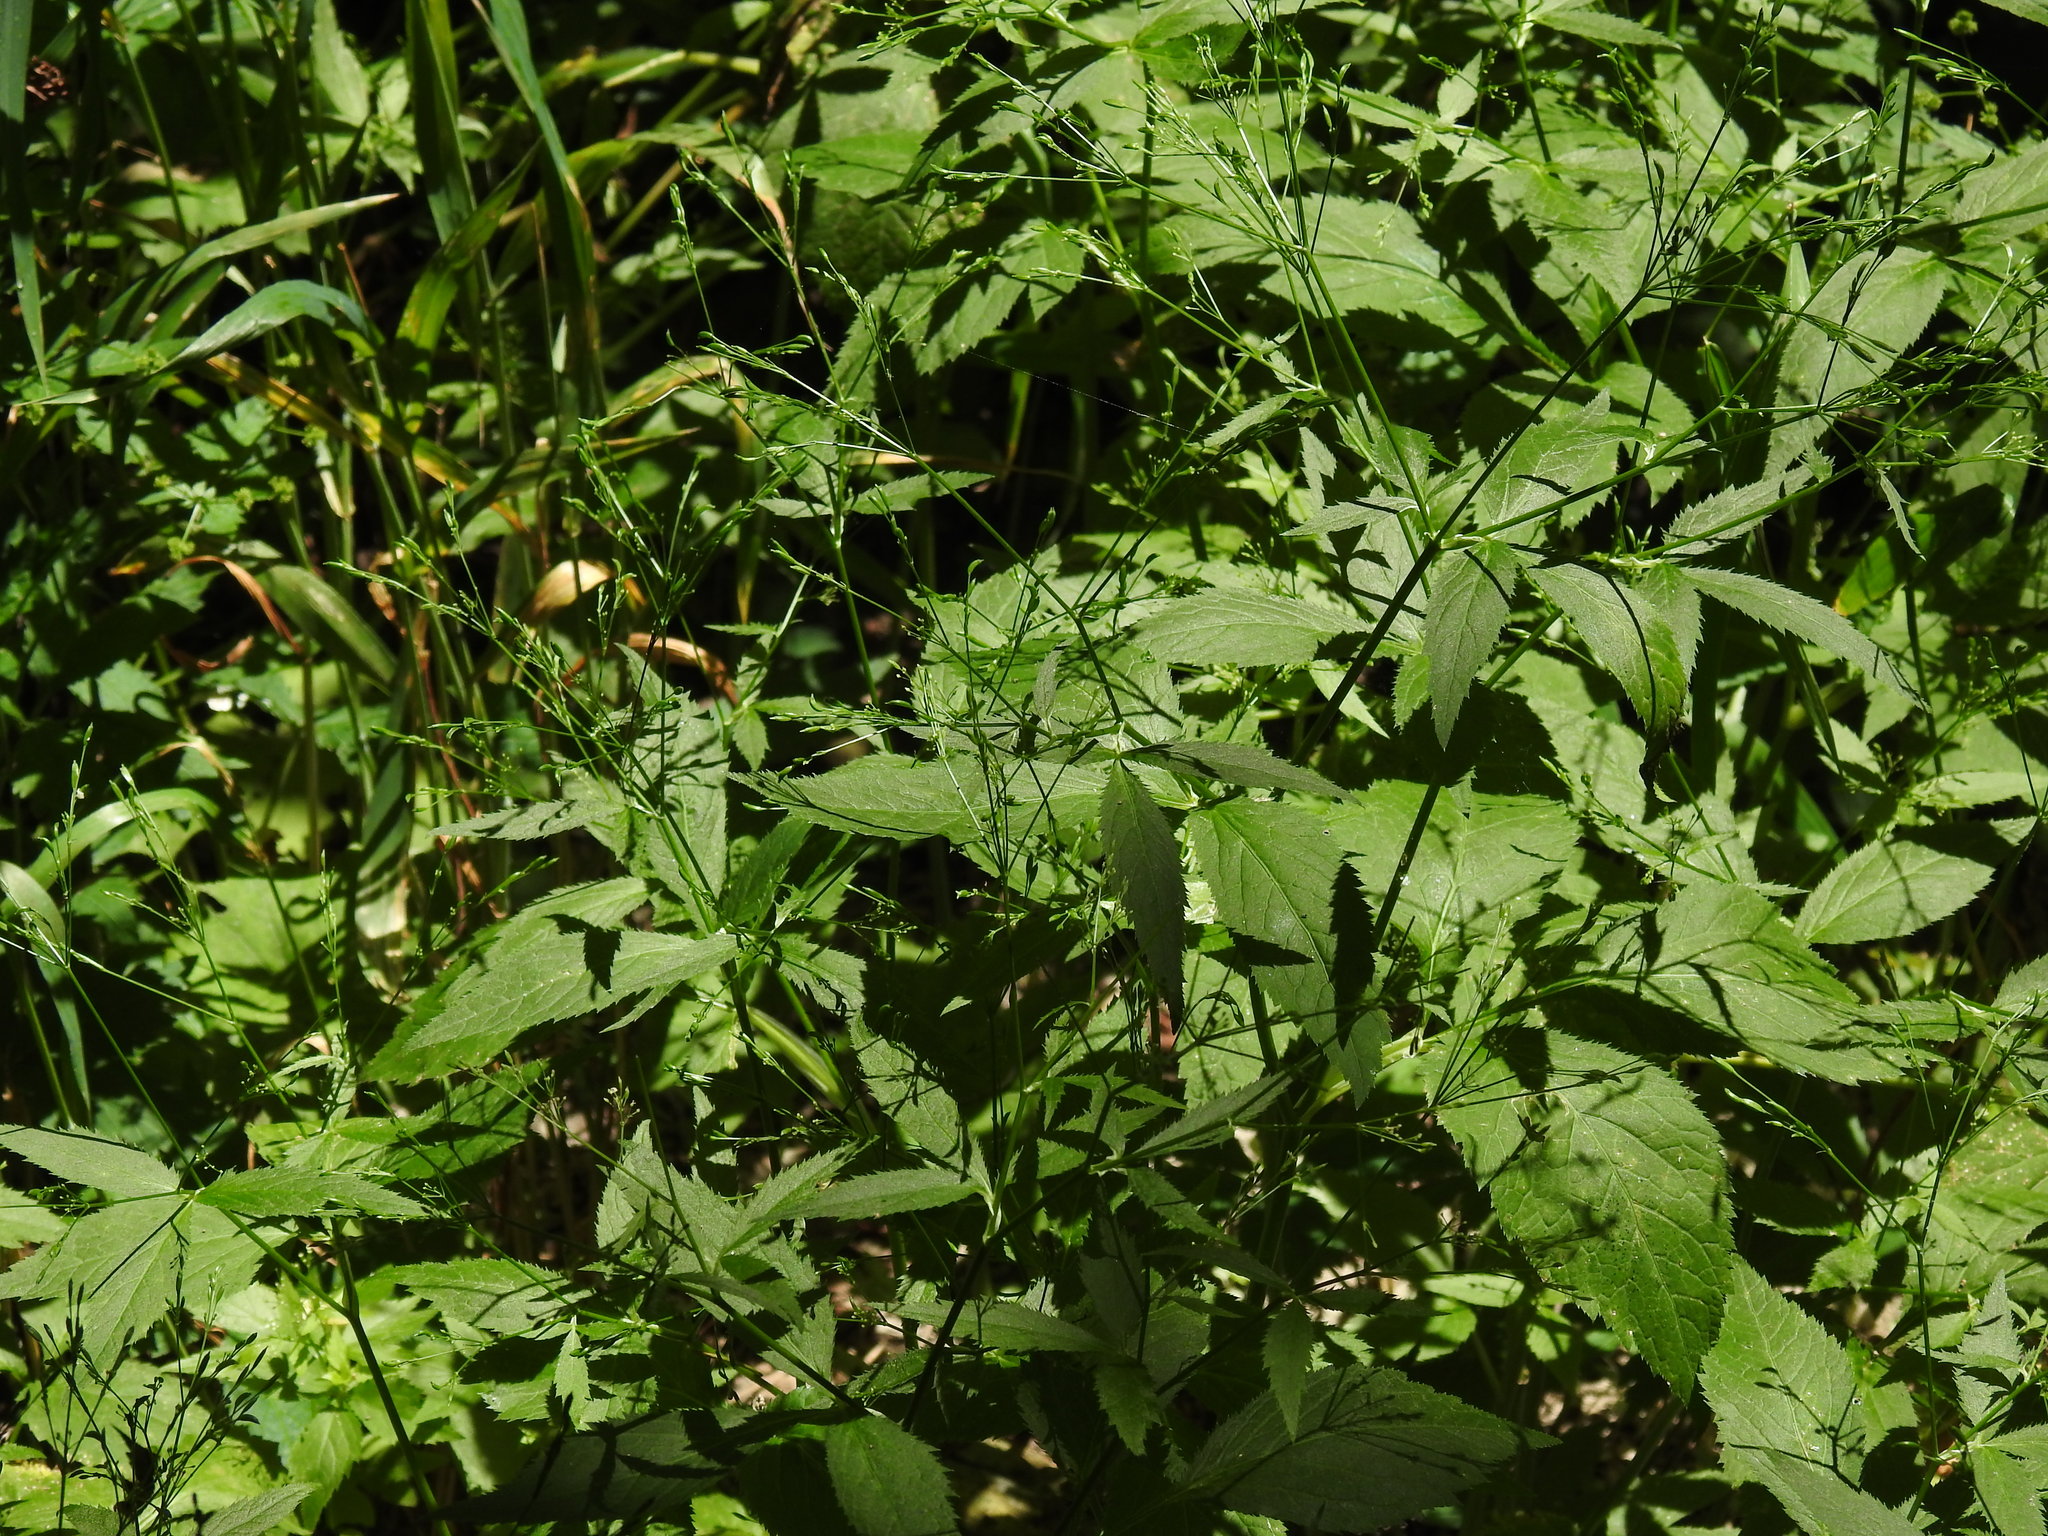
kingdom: Plantae
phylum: Tracheophyta
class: Magnoliopsida
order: Apiales
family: Apiaceae
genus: Cryptotaenia
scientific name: Cryptotaenia canadensis
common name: Honewort
